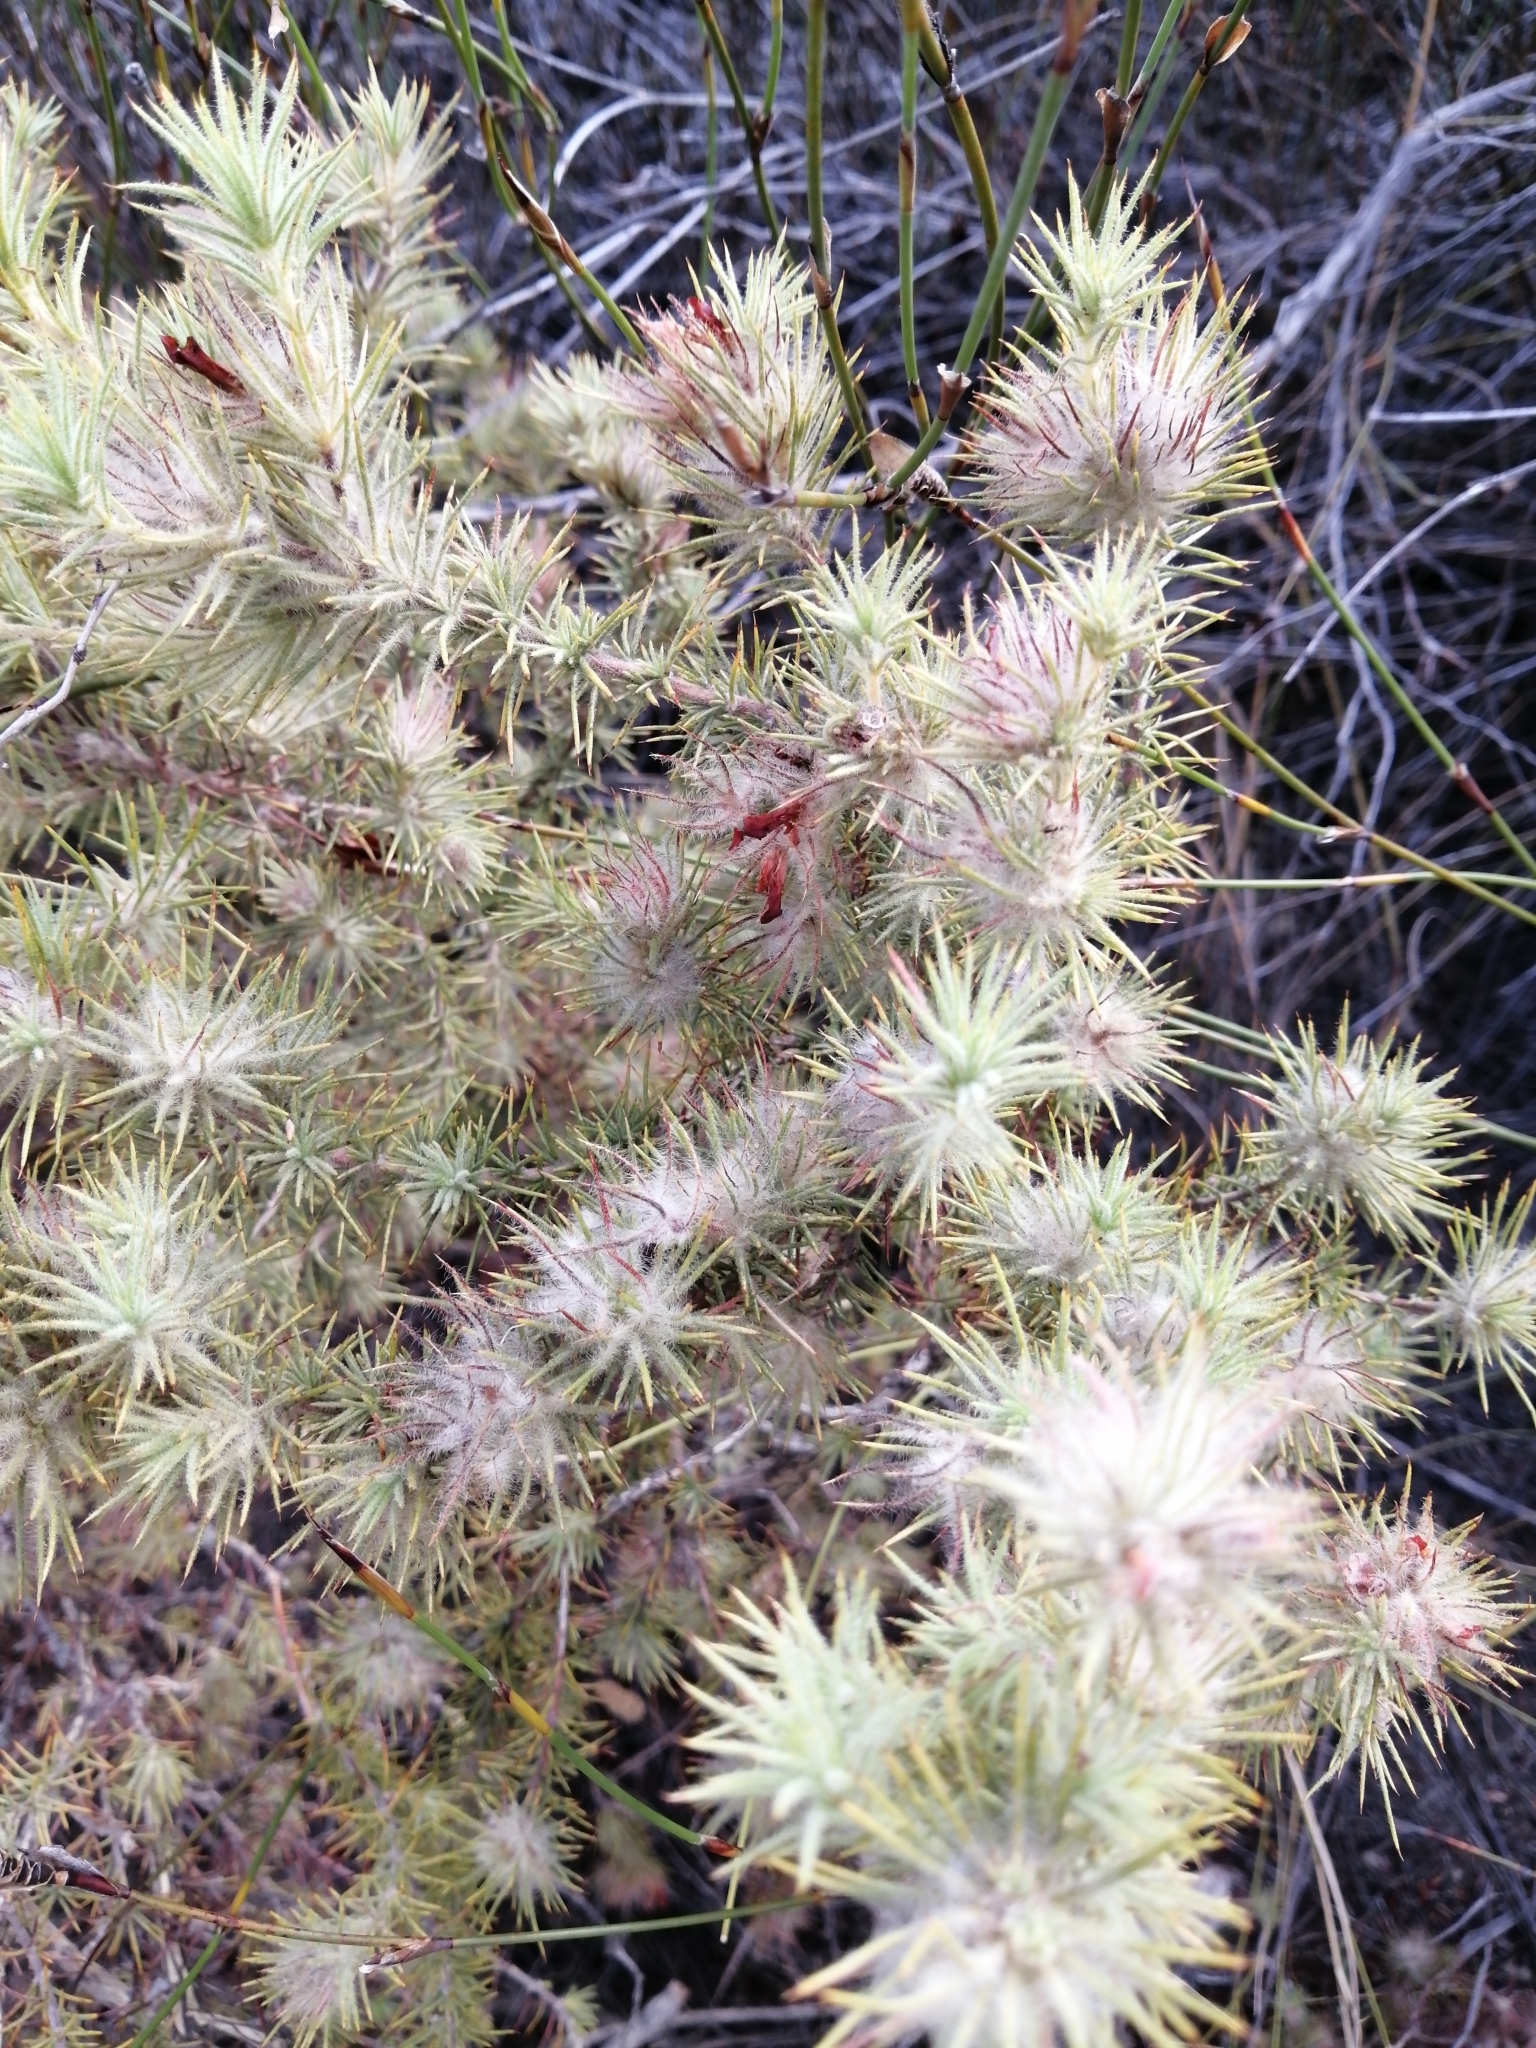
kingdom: Plantae
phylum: Tracheophyta
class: Magnoliopsida
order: Fabales
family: Fabaceae
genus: Aspalathus
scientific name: Aspalathus rubiginosa
